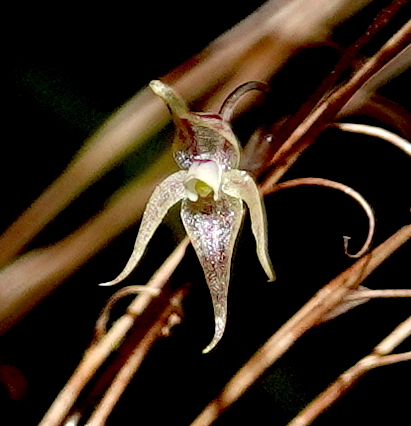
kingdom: Plantae
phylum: Tracheophyta
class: Liliopsida
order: Asparagales
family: Orchidaceae
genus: Pleurothallis
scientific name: Pleurothallis languida
